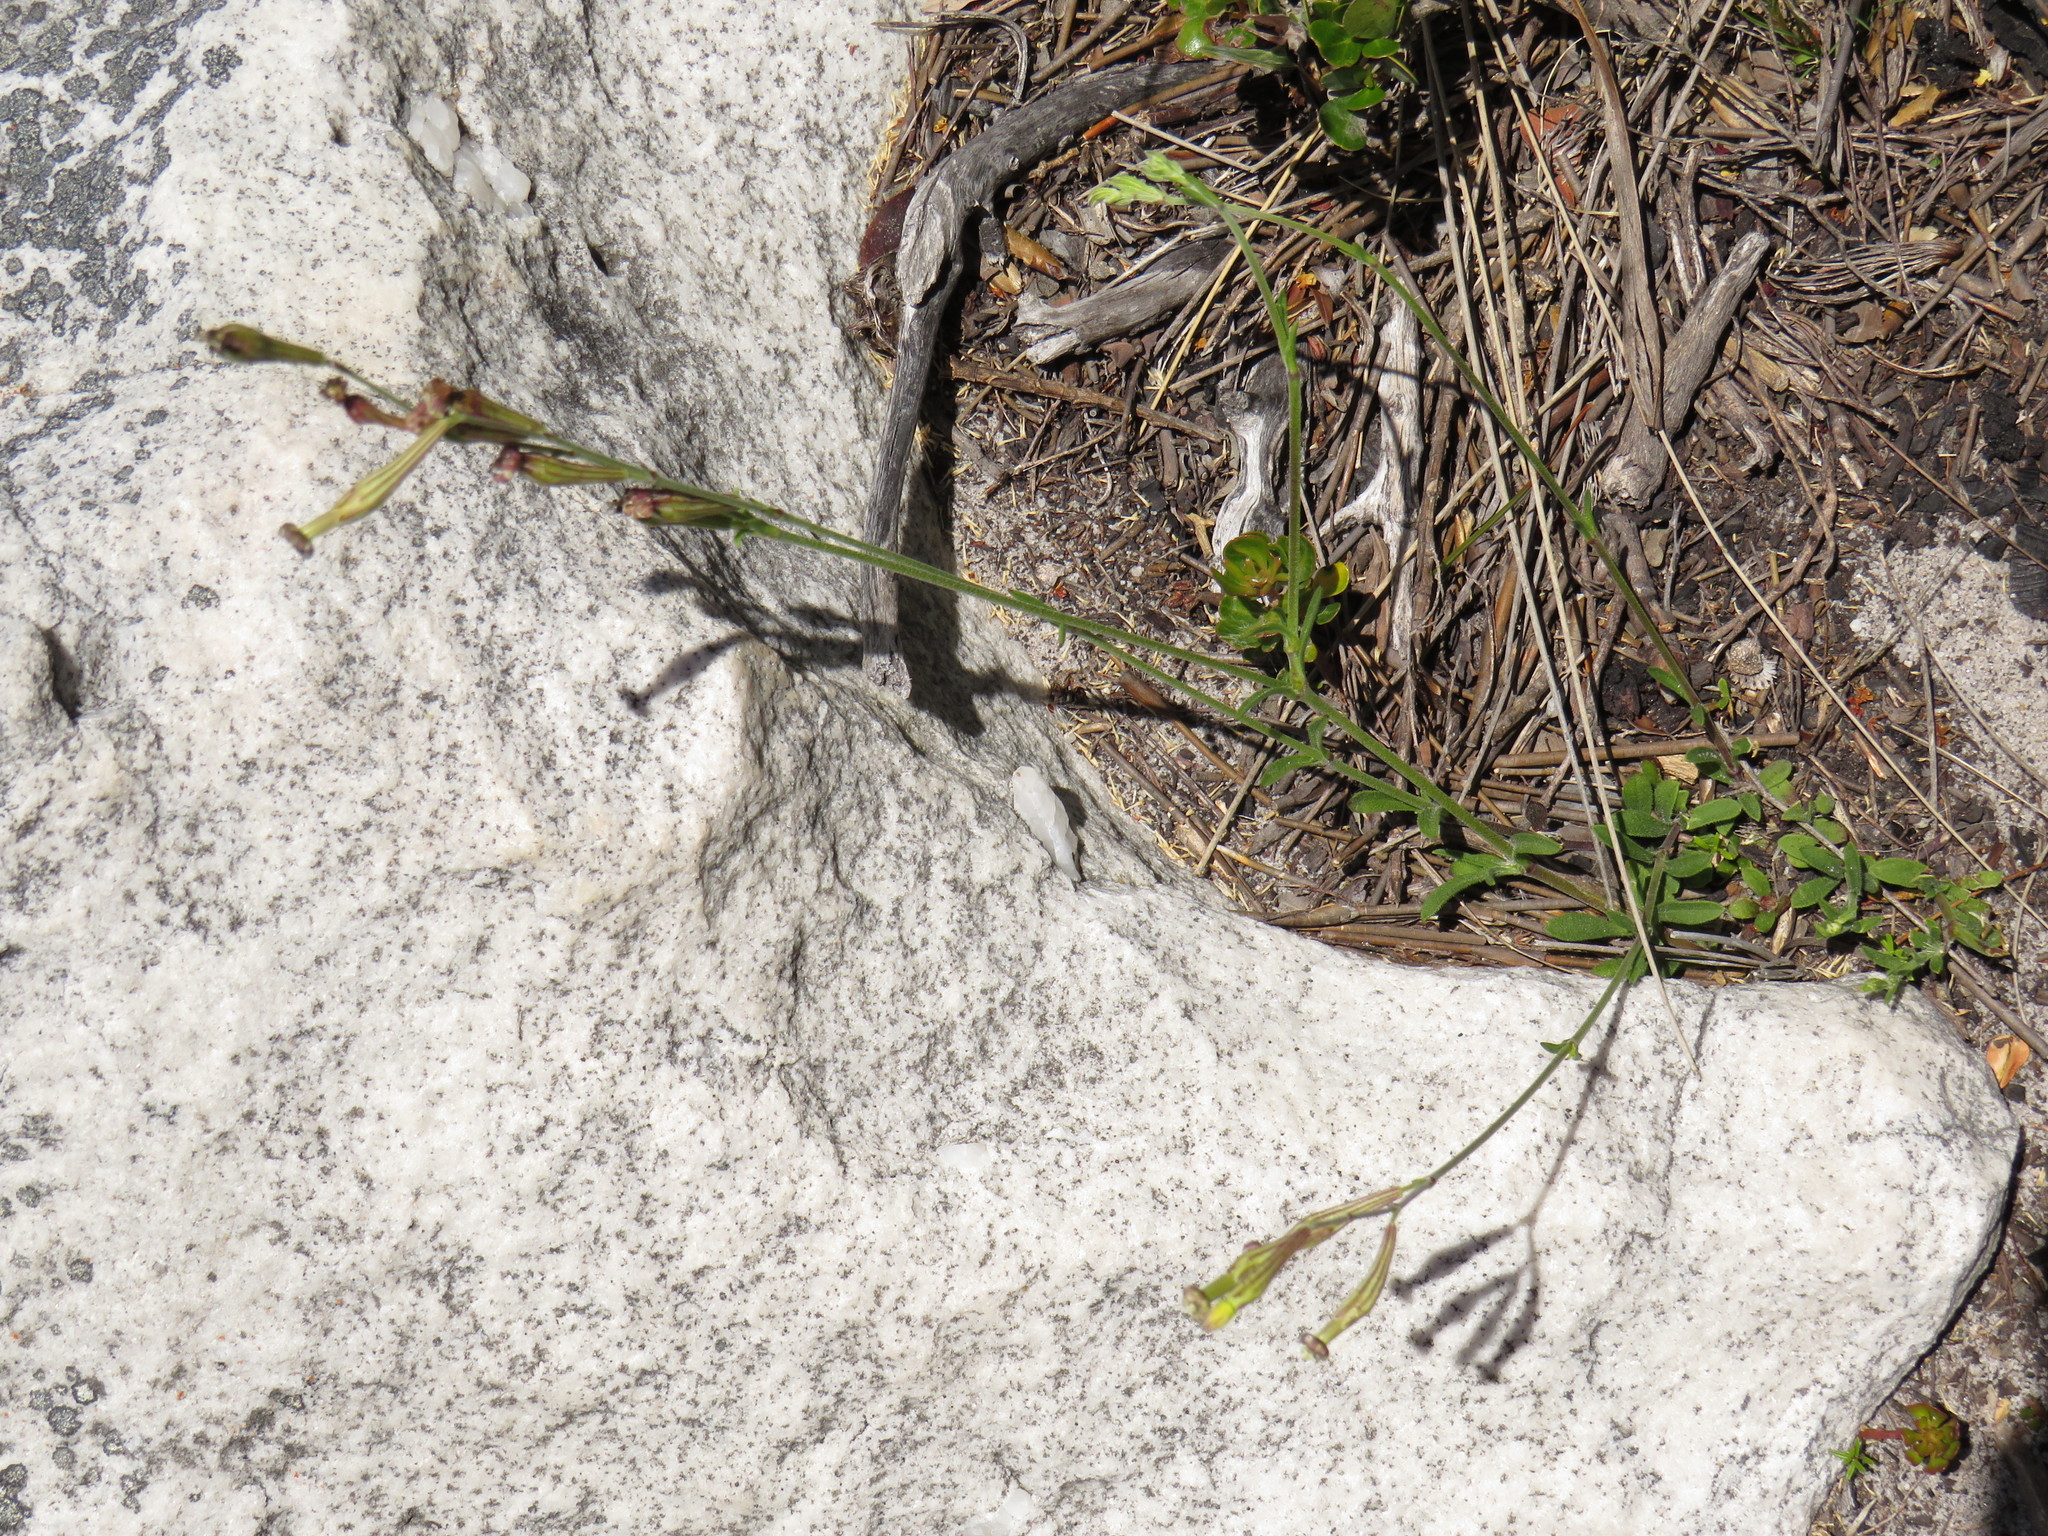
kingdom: Plantae
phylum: Tracheophyta
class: Magnoliopsida
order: Caryophyllales
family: Caryophyllaceae
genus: Silene
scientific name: Silene burchellii
